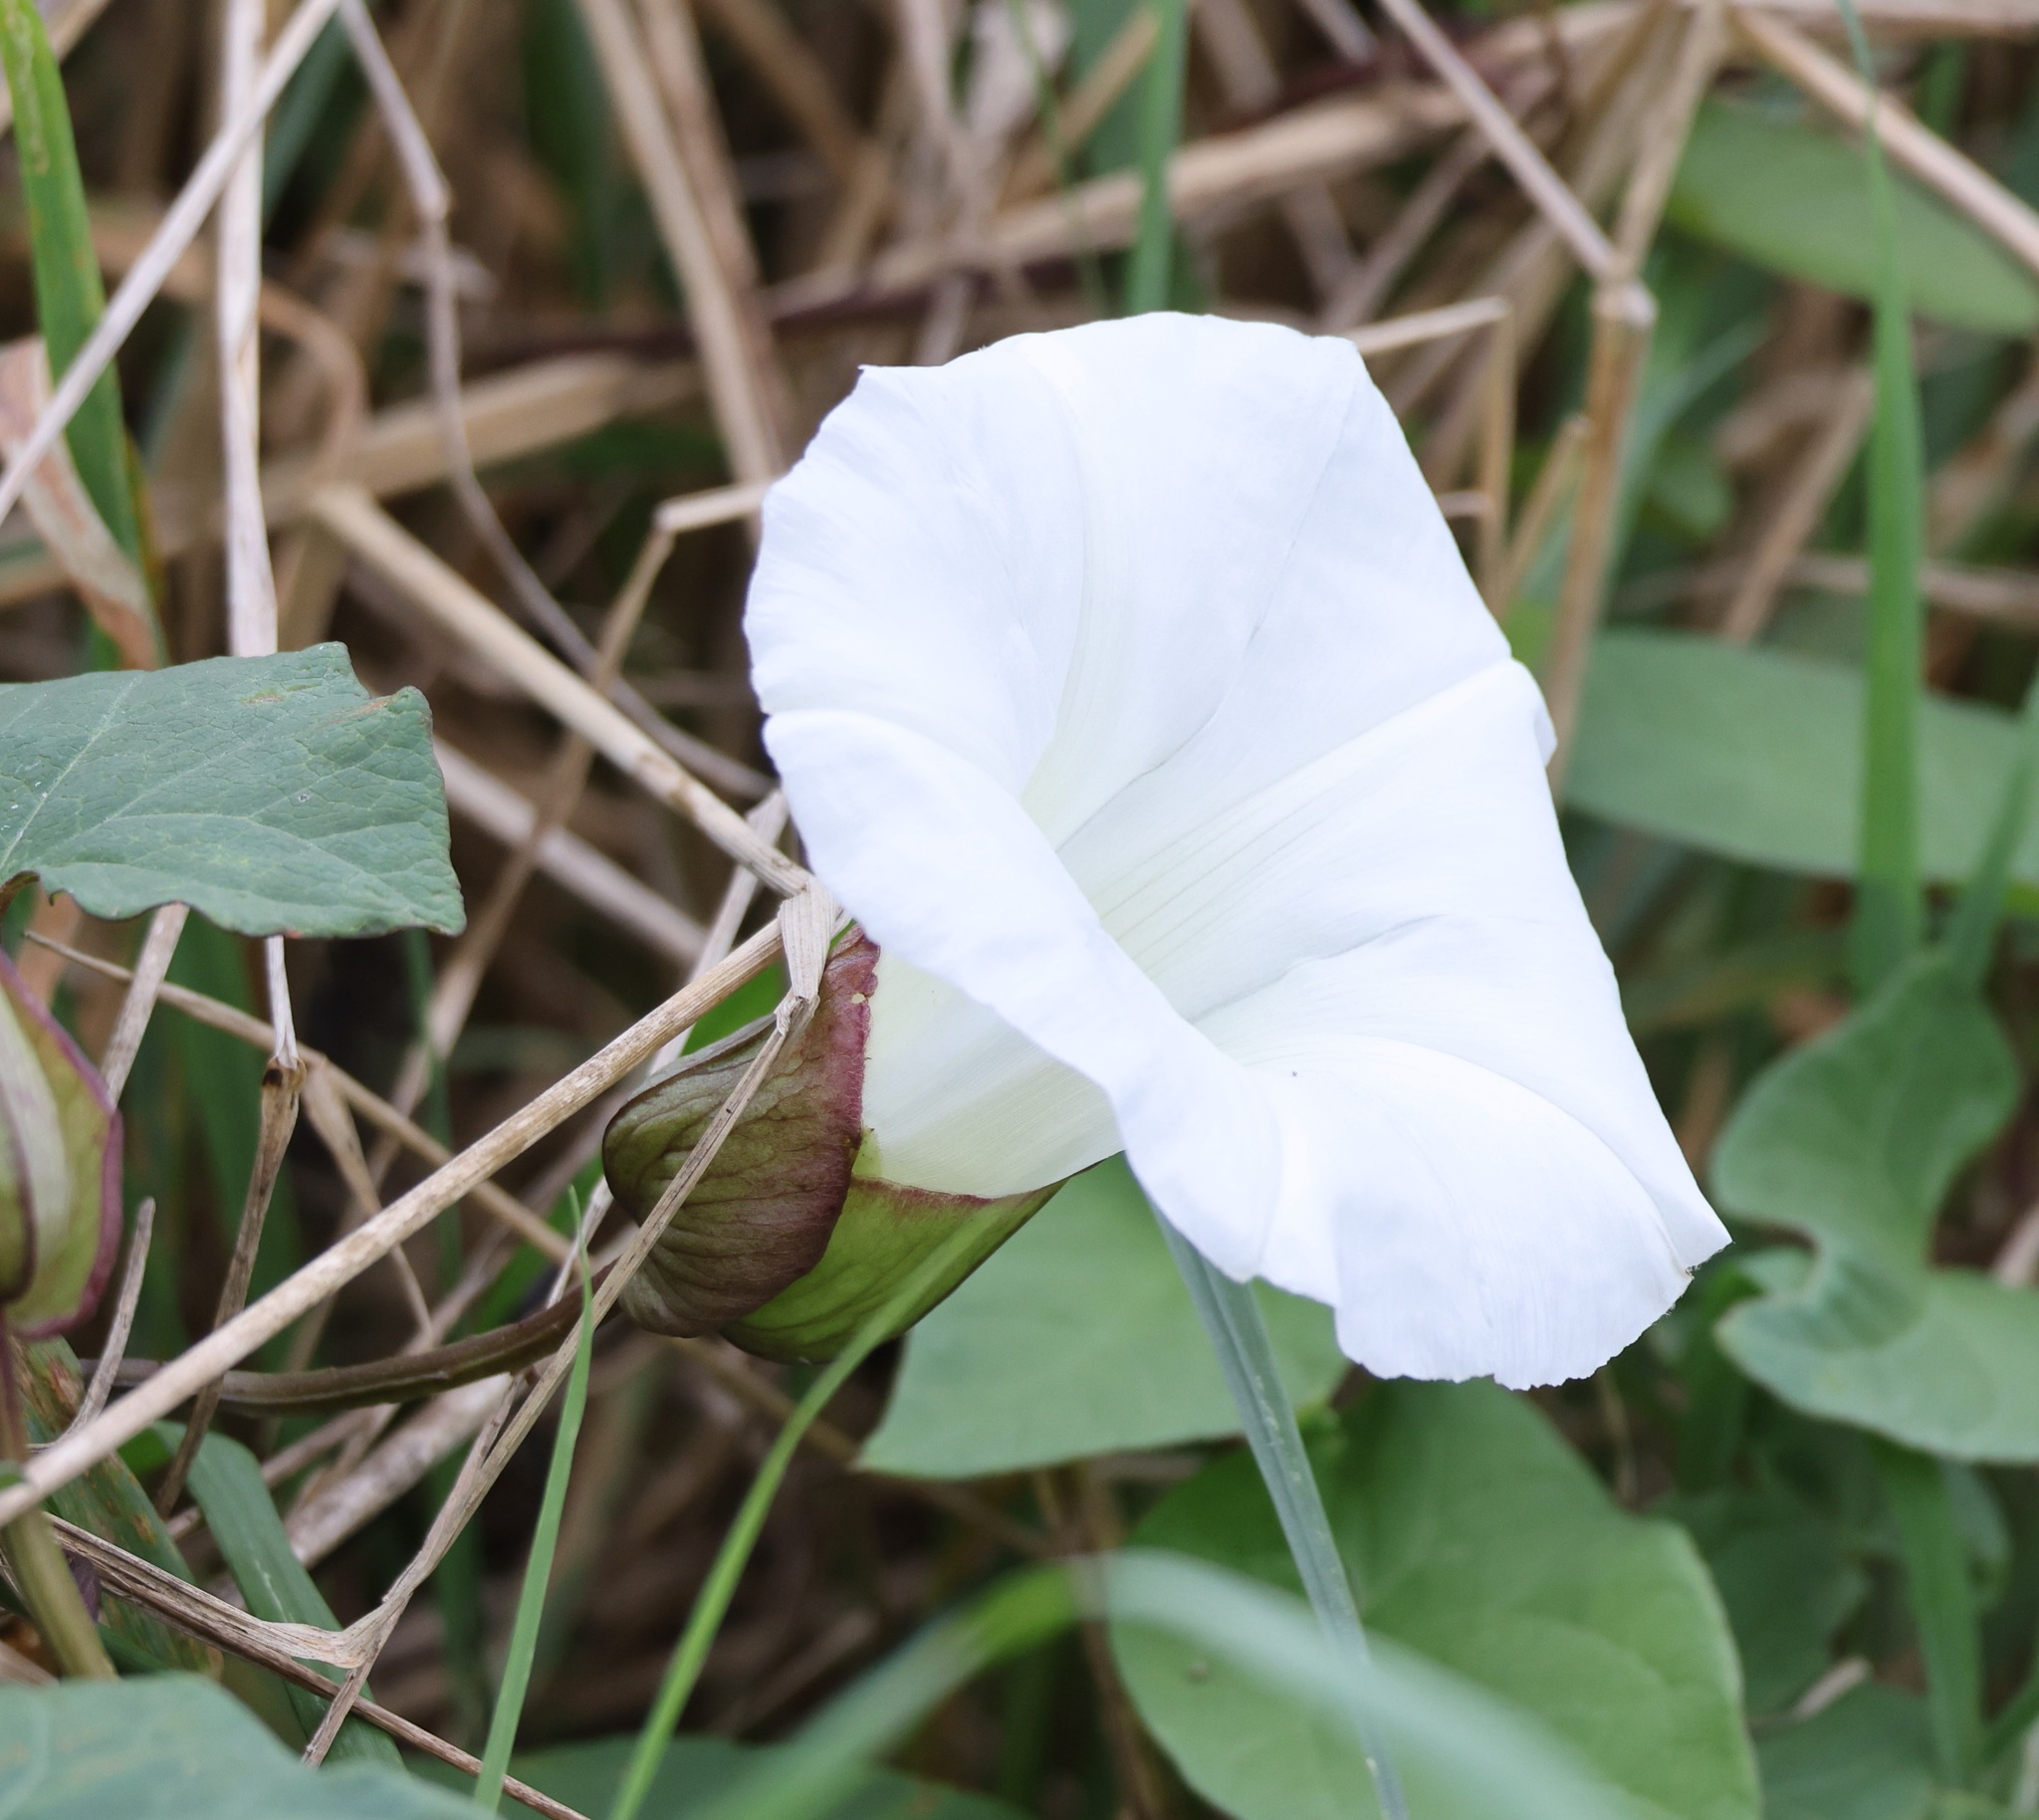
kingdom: Plantae
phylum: Tracheophyta
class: Magnoliopsida
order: Solanales
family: Convolvulaceae
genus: Calystegia
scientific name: Calystegia silvatica
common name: Large bindweed
